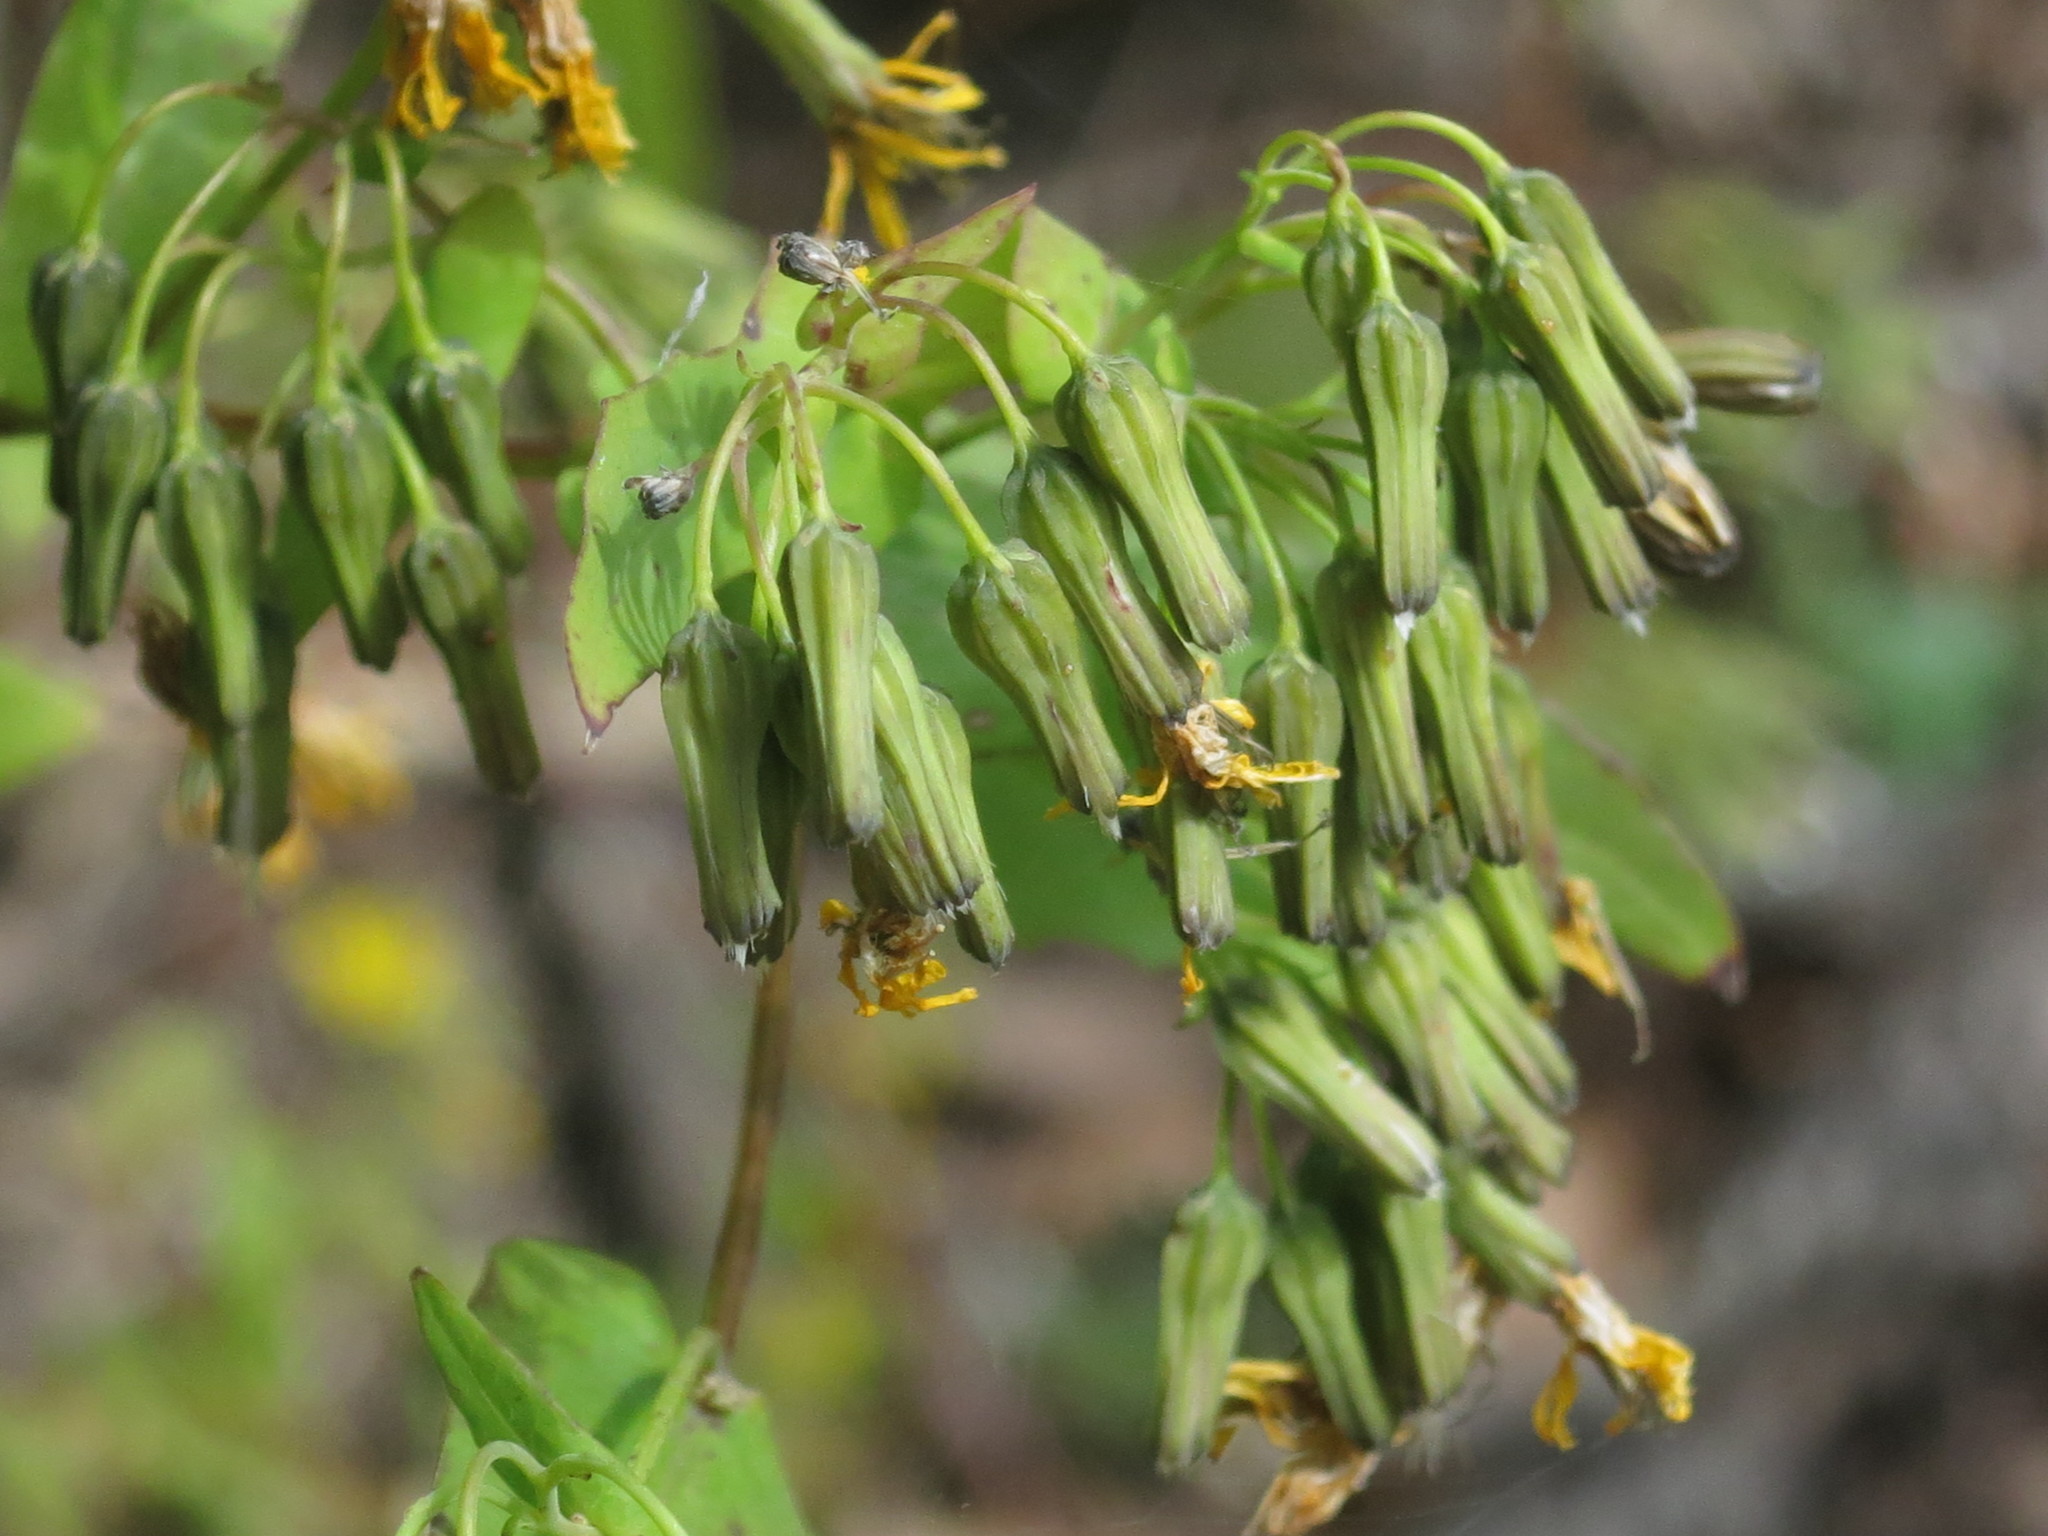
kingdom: Plantae
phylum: Tracheophyta
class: Magnoliopsida
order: Asterales
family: Asteraceae
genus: Crepidiastrum
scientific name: Crepidiastrum denticulatum
